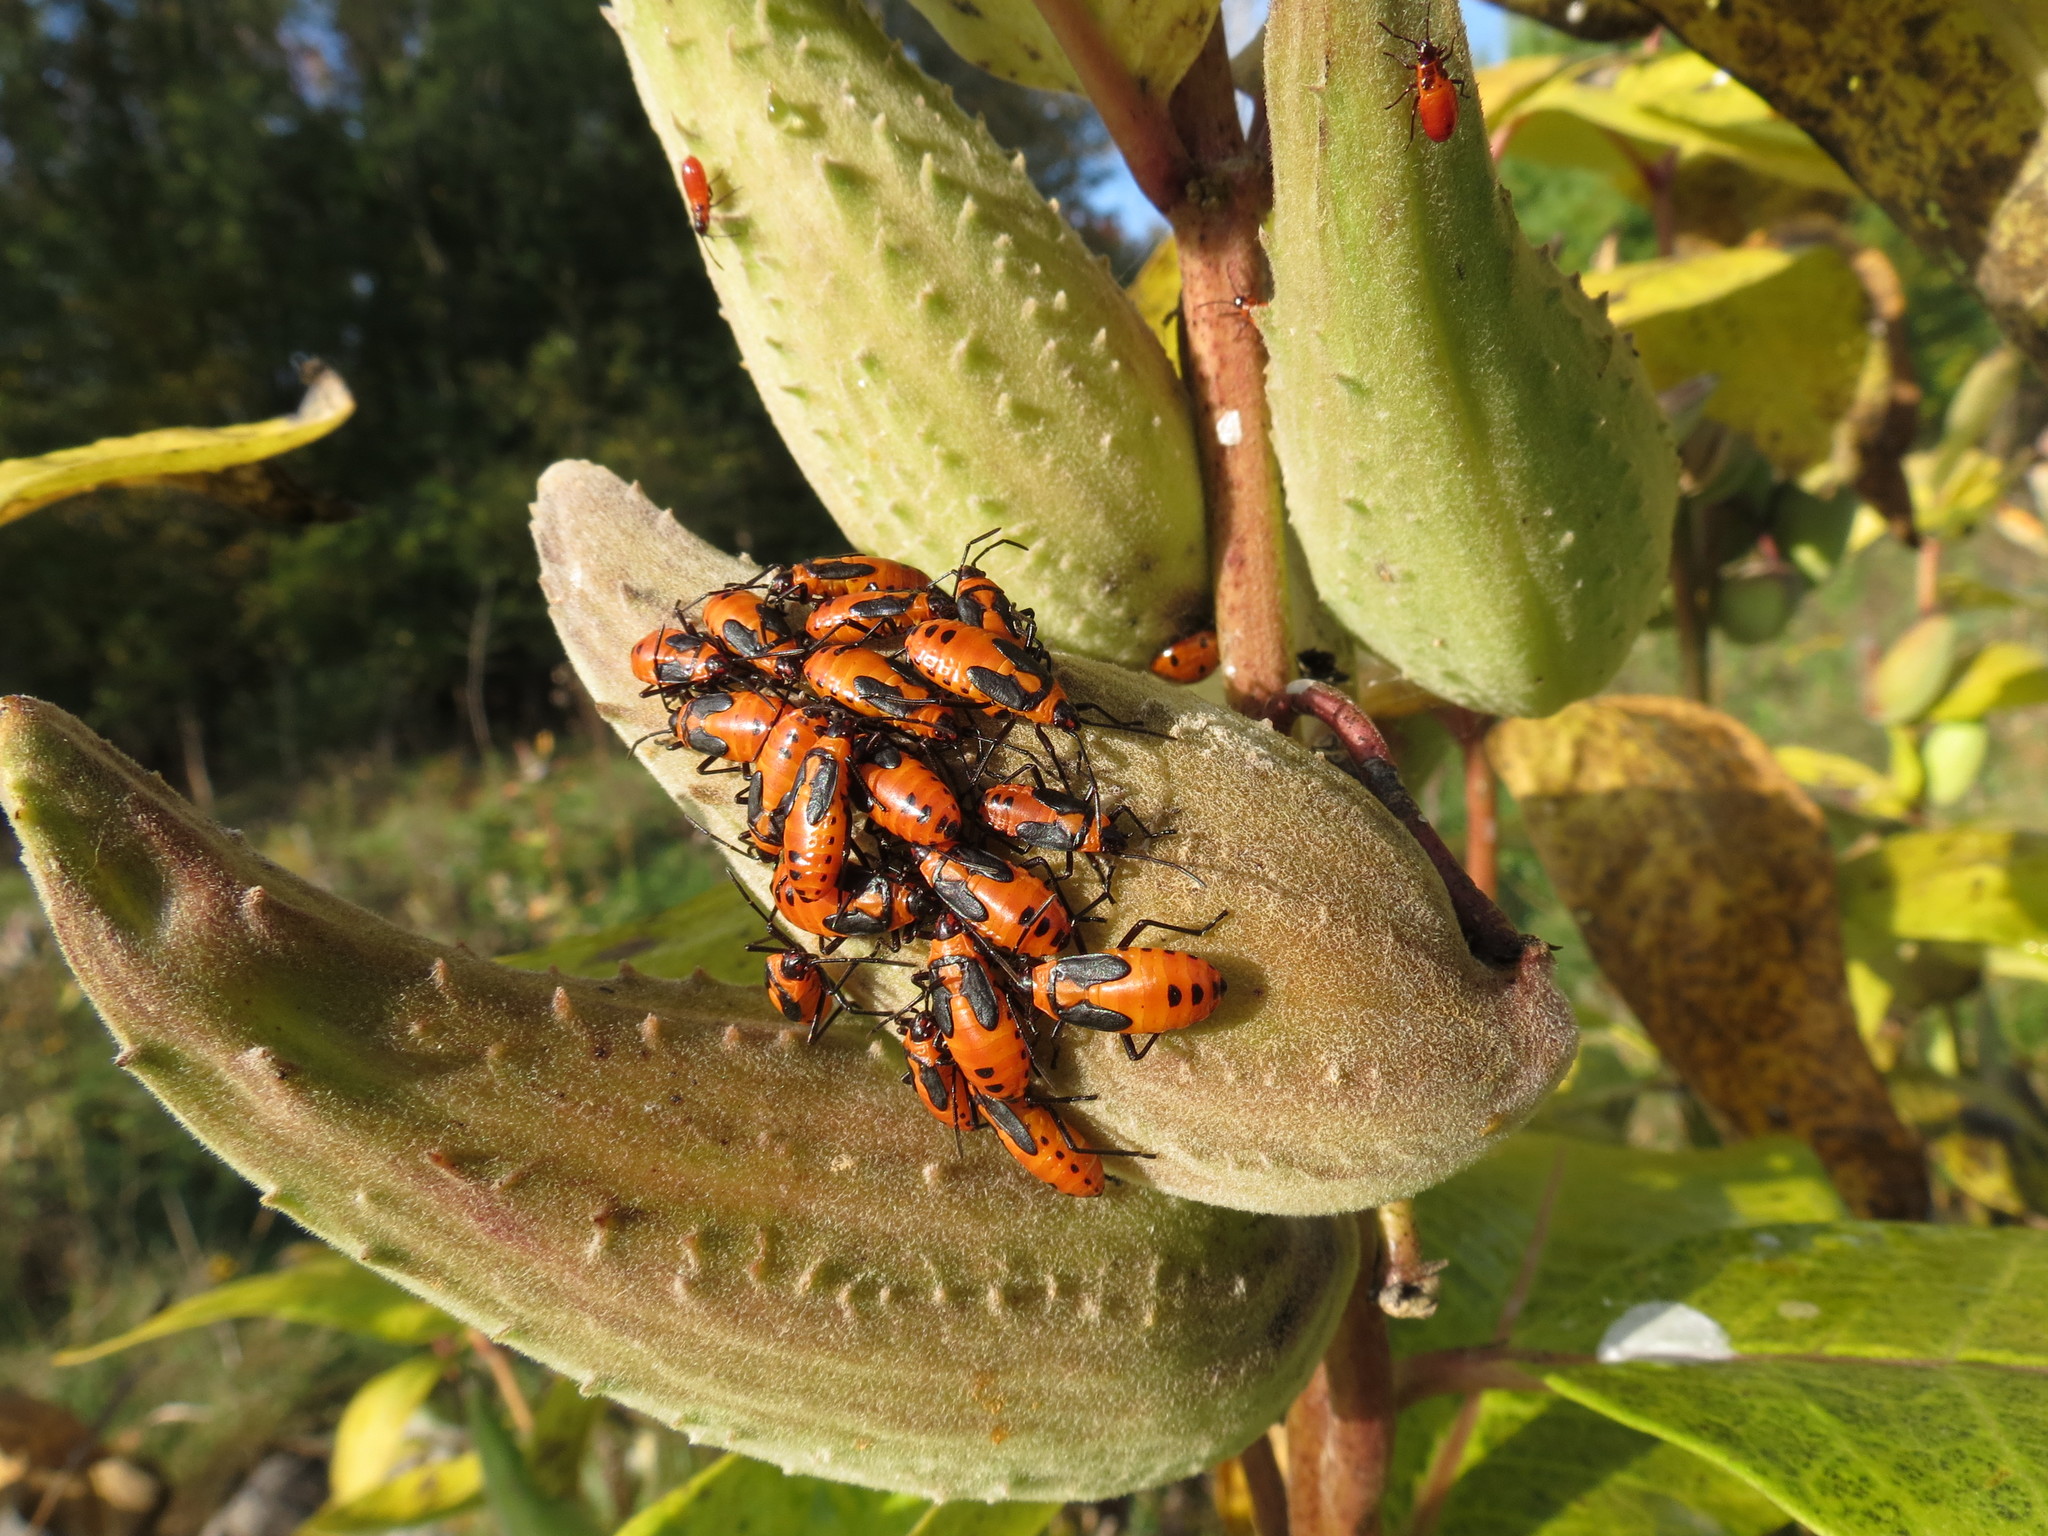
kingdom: Animalia
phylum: Arthropoda
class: Insecta
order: Hemiptera
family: Lygaeidae
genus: Oncopeltus
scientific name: Oncopeltus fasciatus
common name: Large milkweed bug
